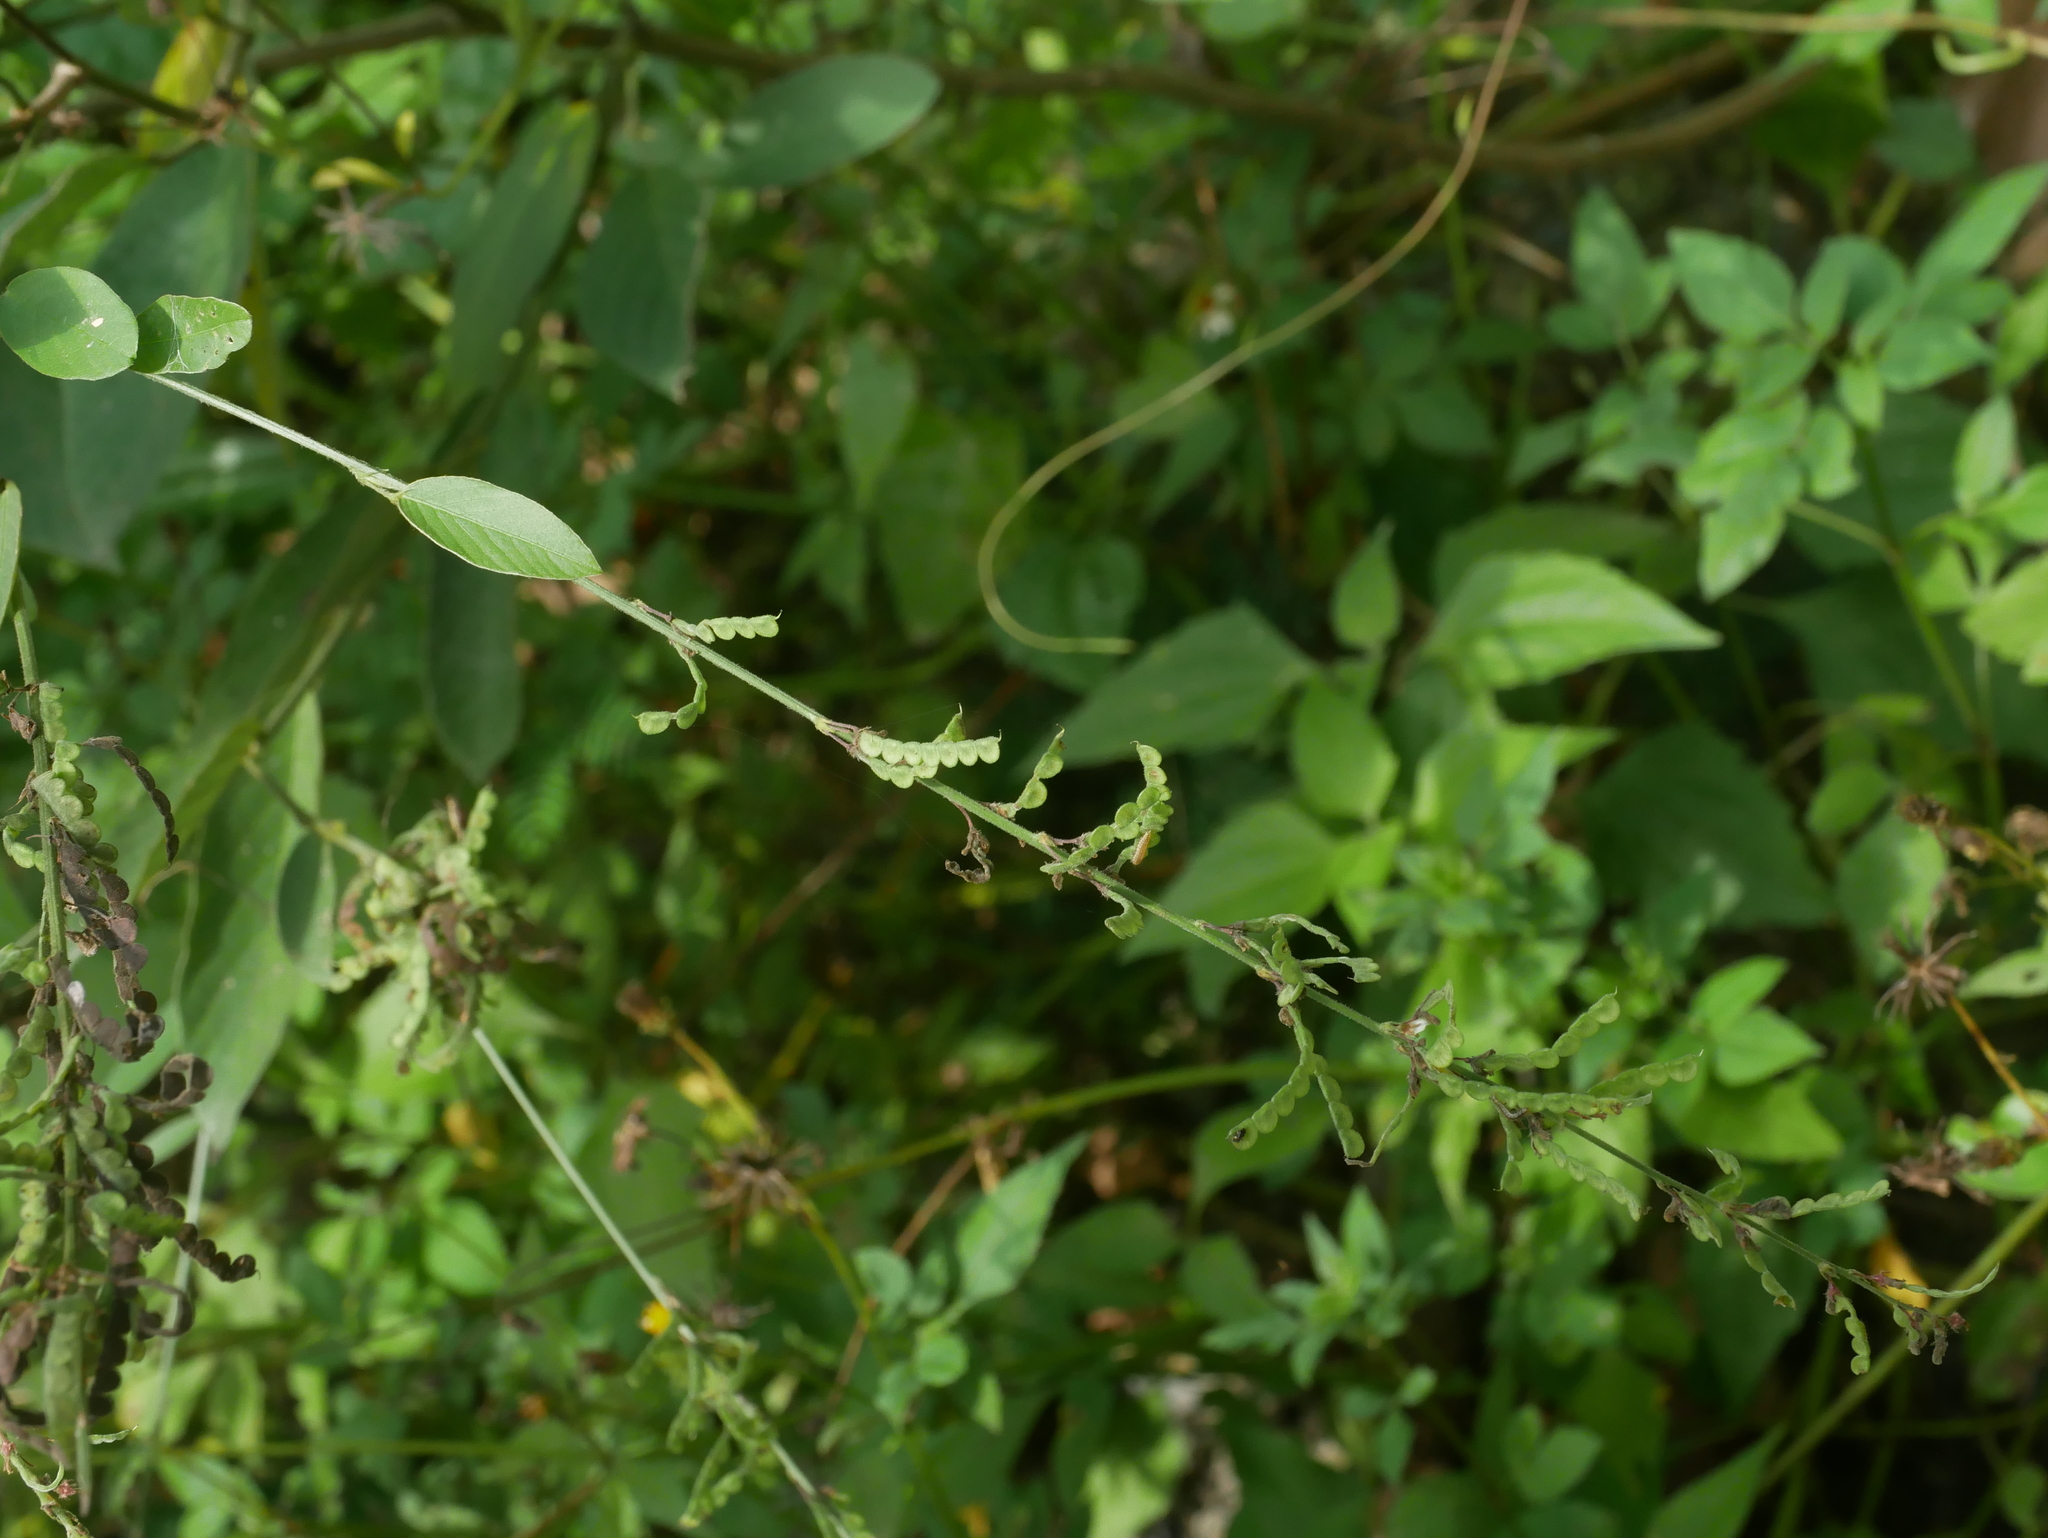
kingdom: Plantae
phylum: Tracheophyta
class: Magnoliopsida
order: Fabales
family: Fabaceae
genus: Pleurolobus
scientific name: Pleurolobus gangeticus
